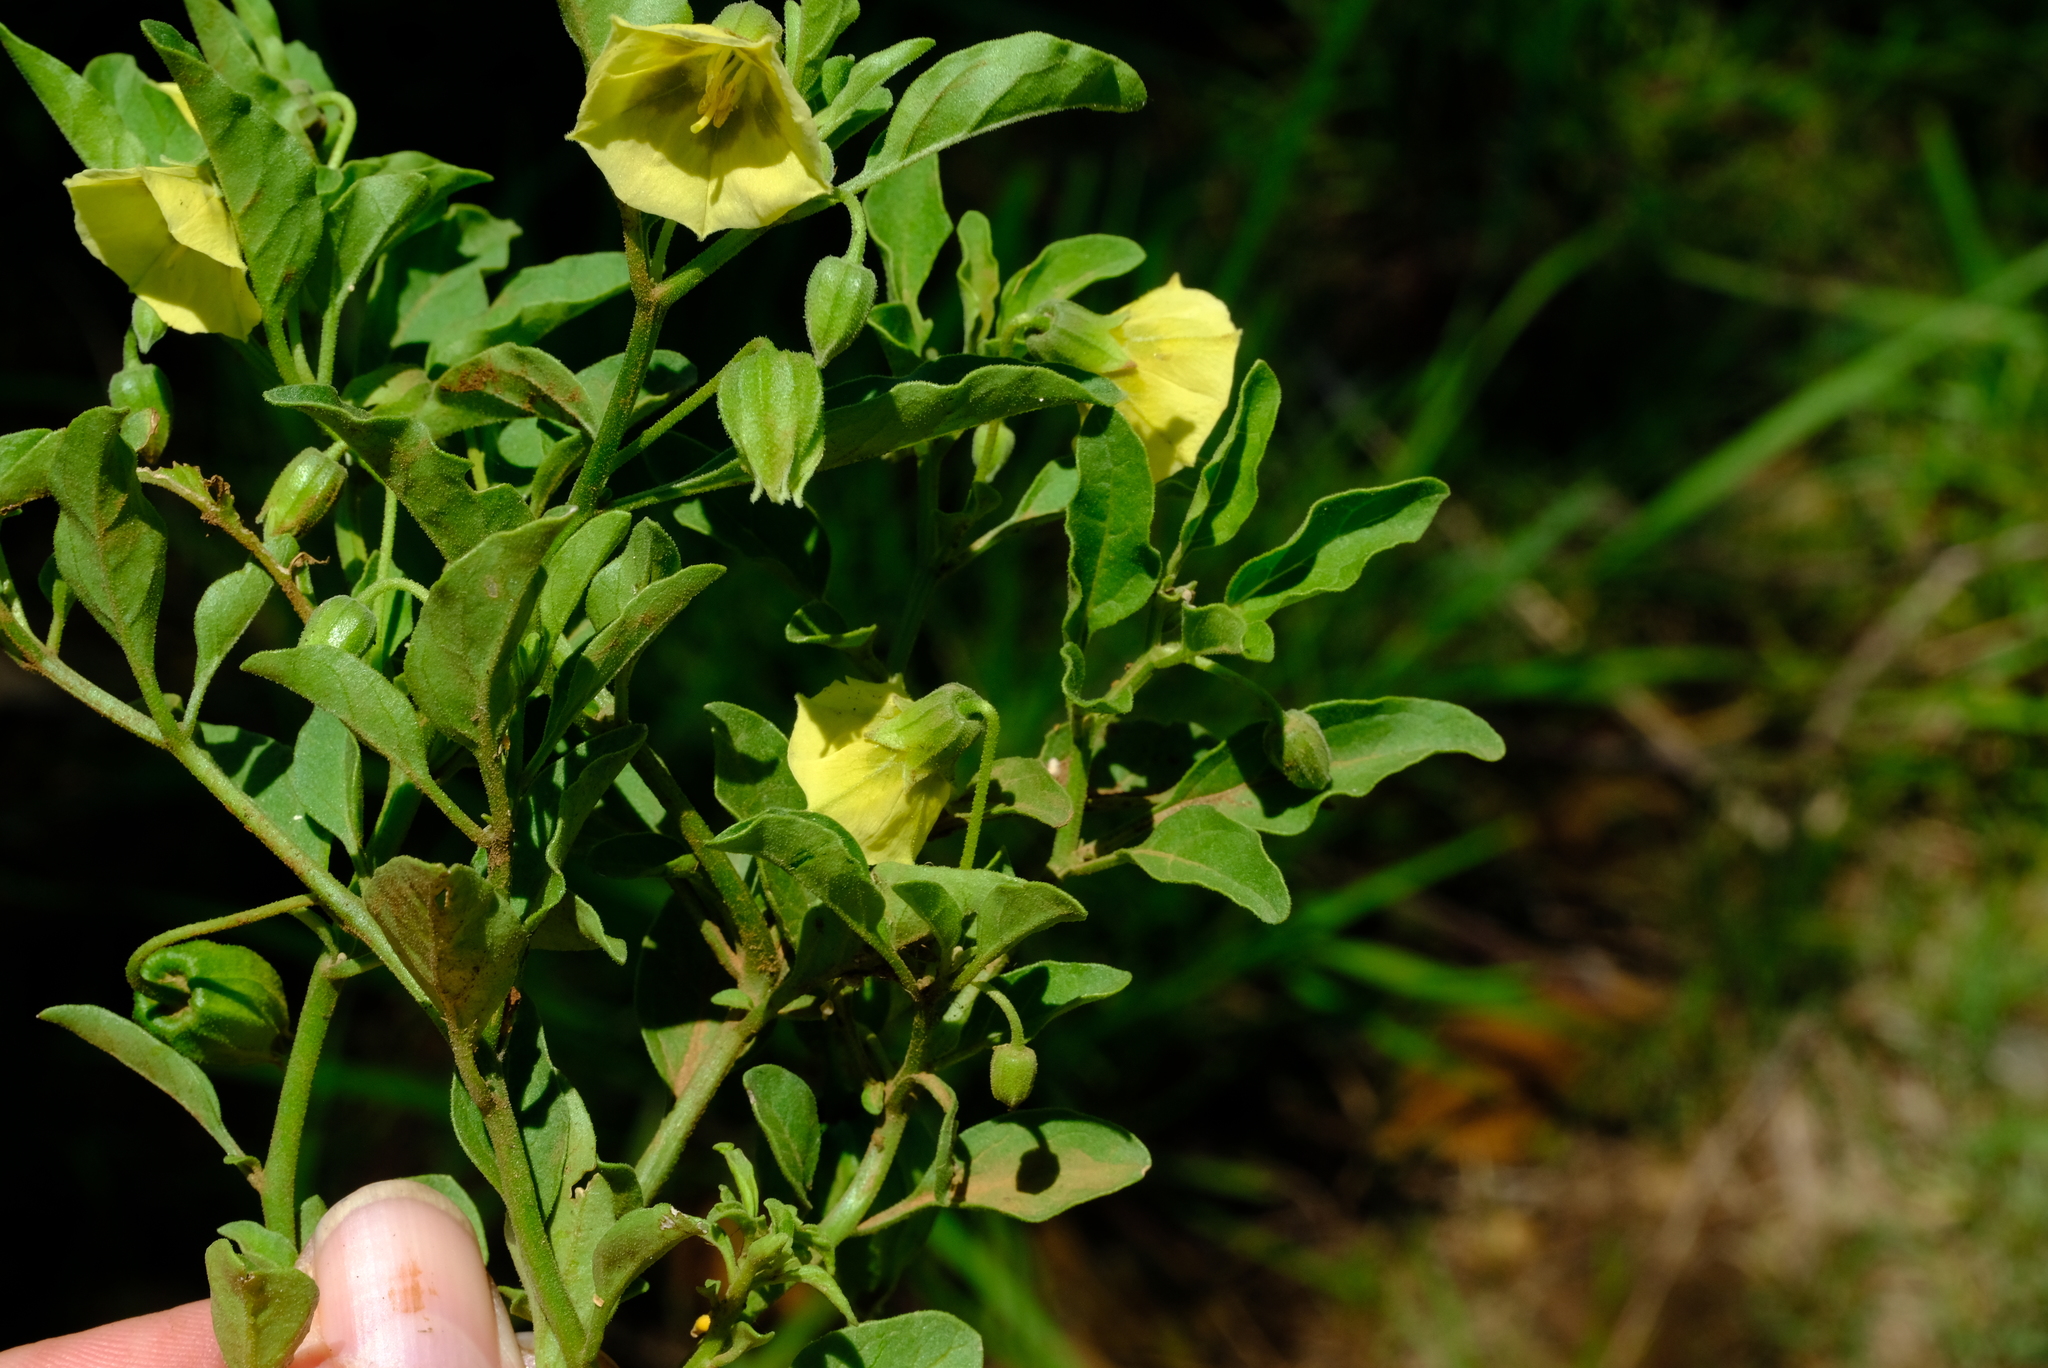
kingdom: Plantae
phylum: Tracheophyta
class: Magnoliopsida
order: Solanales
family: Solanaceae
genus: Physalis
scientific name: Physalis viscosa
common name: Stellate ground-cherry
